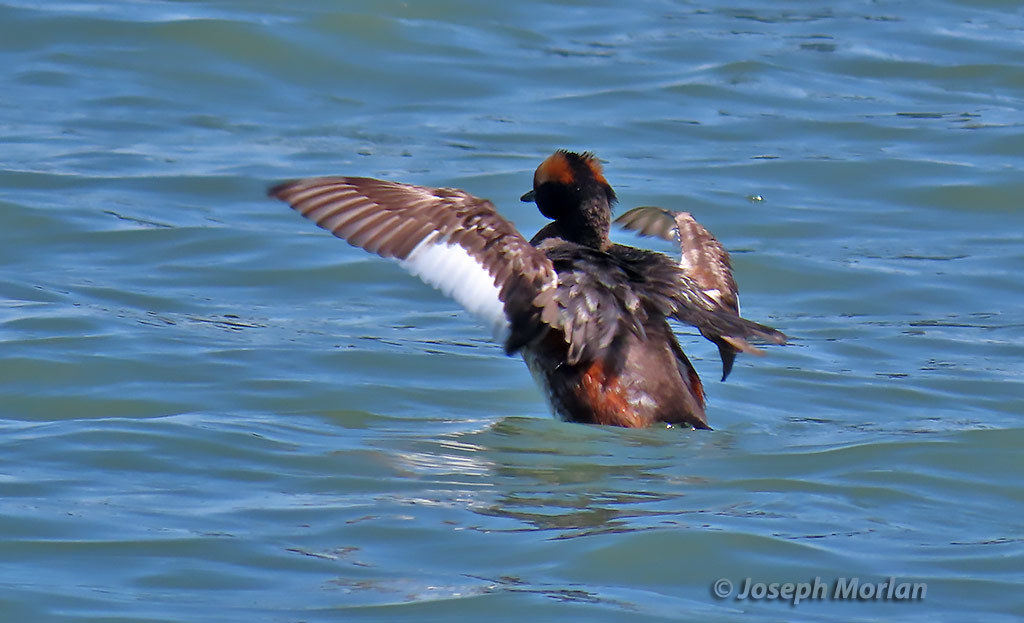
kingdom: Animalia
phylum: Chordata
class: Aves
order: Podicipediformes
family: Podicipedidae
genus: Podiceps
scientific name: Podiceps auritus
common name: Horned grebe
